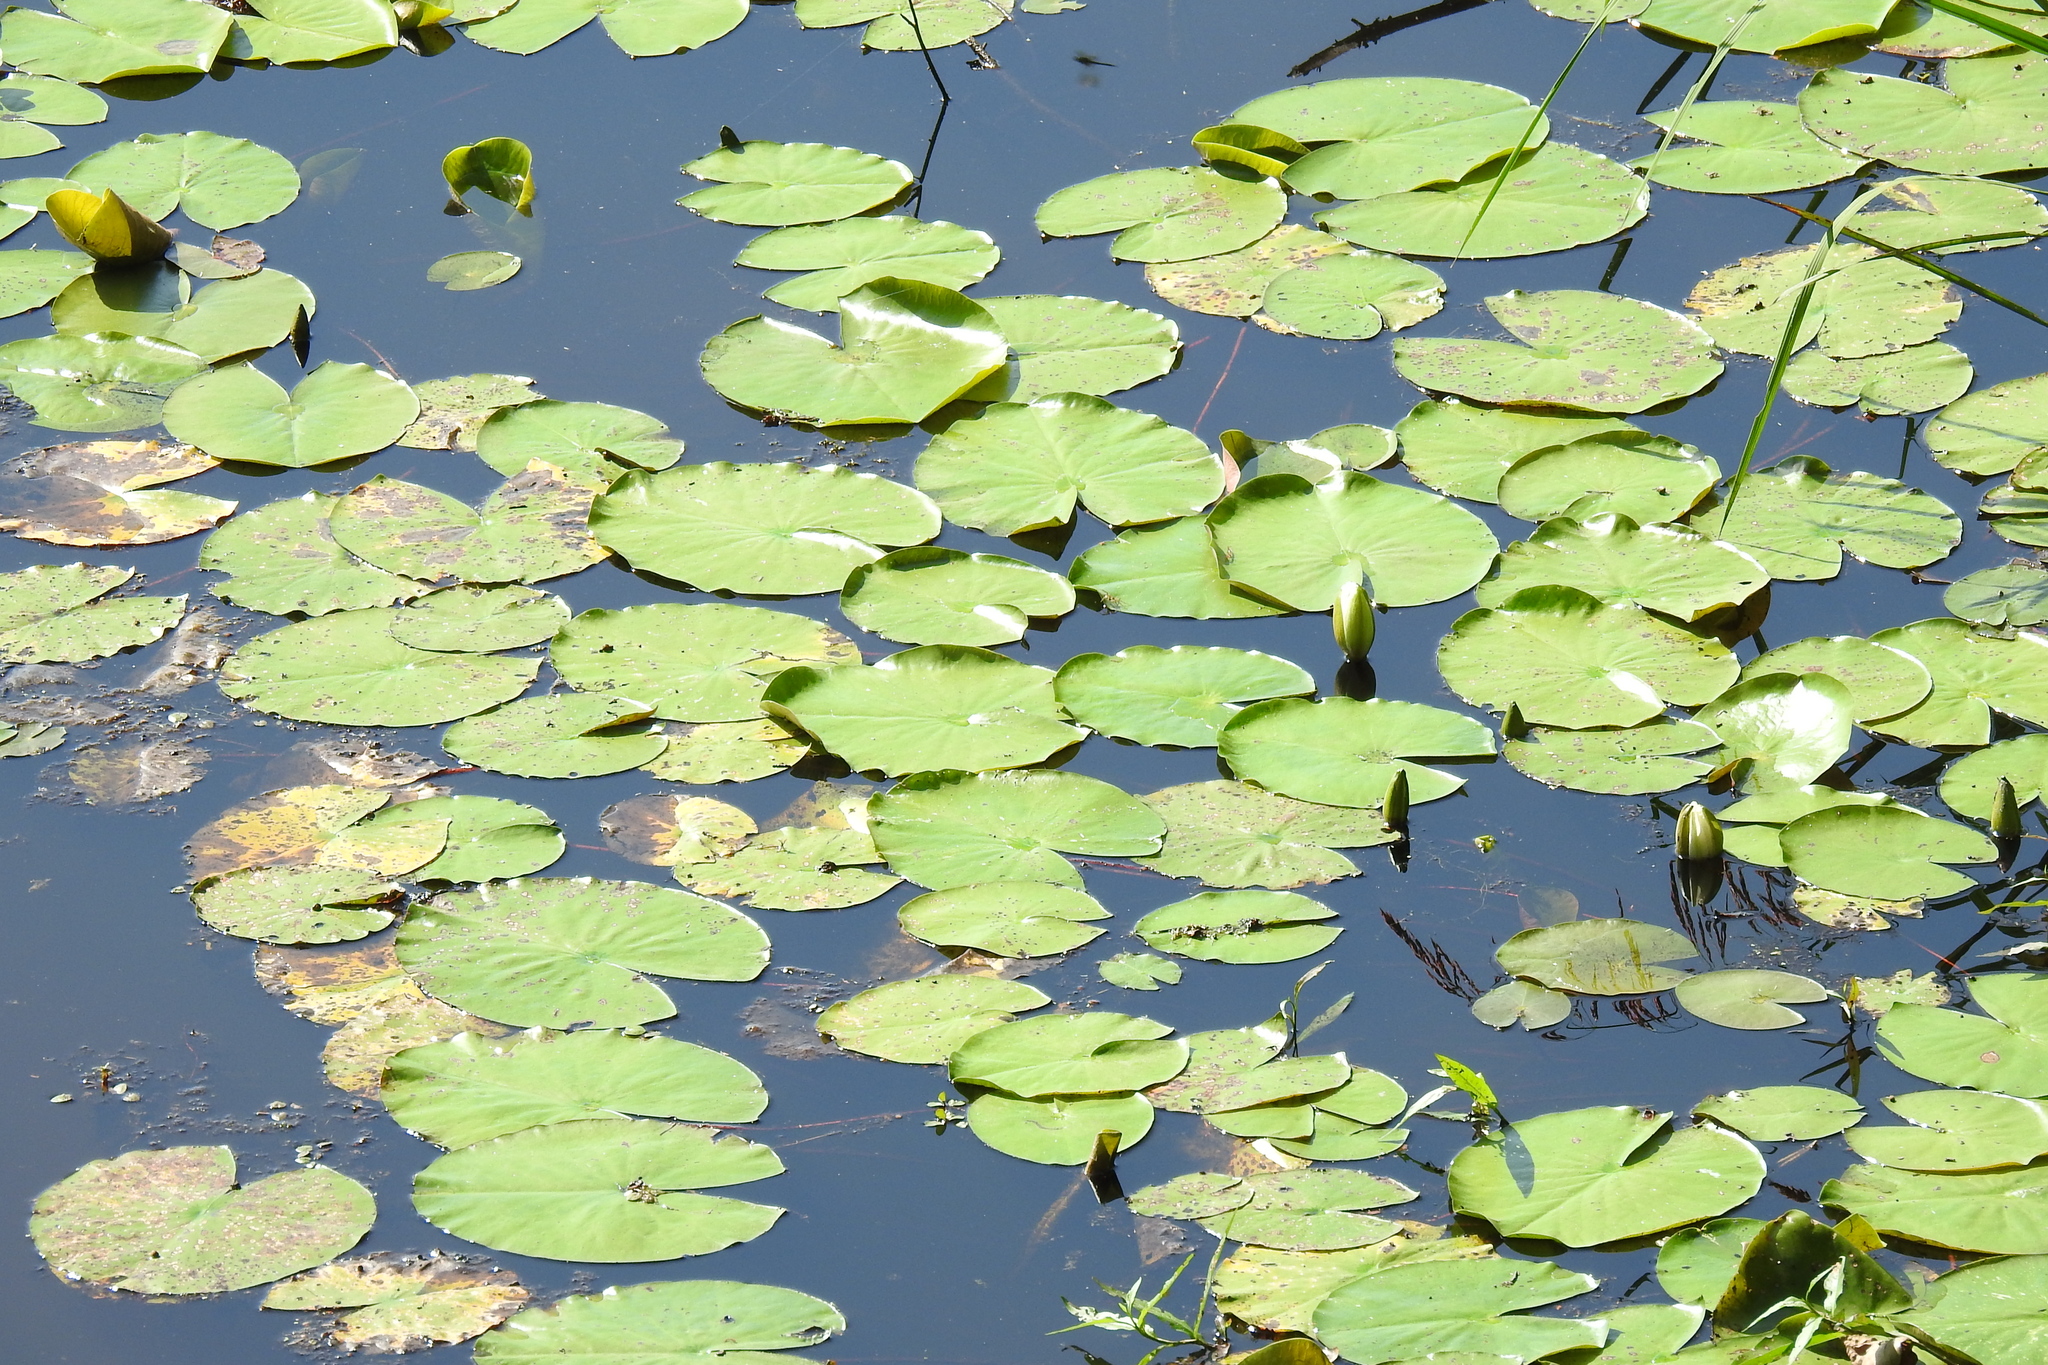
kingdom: Plantae
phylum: Tracheophyta
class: Magnoliopsida
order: Nymphaeales
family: Nymphaeaceae
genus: Nymphaea
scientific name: Nymphaea odorata
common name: Fragrant water-lily
